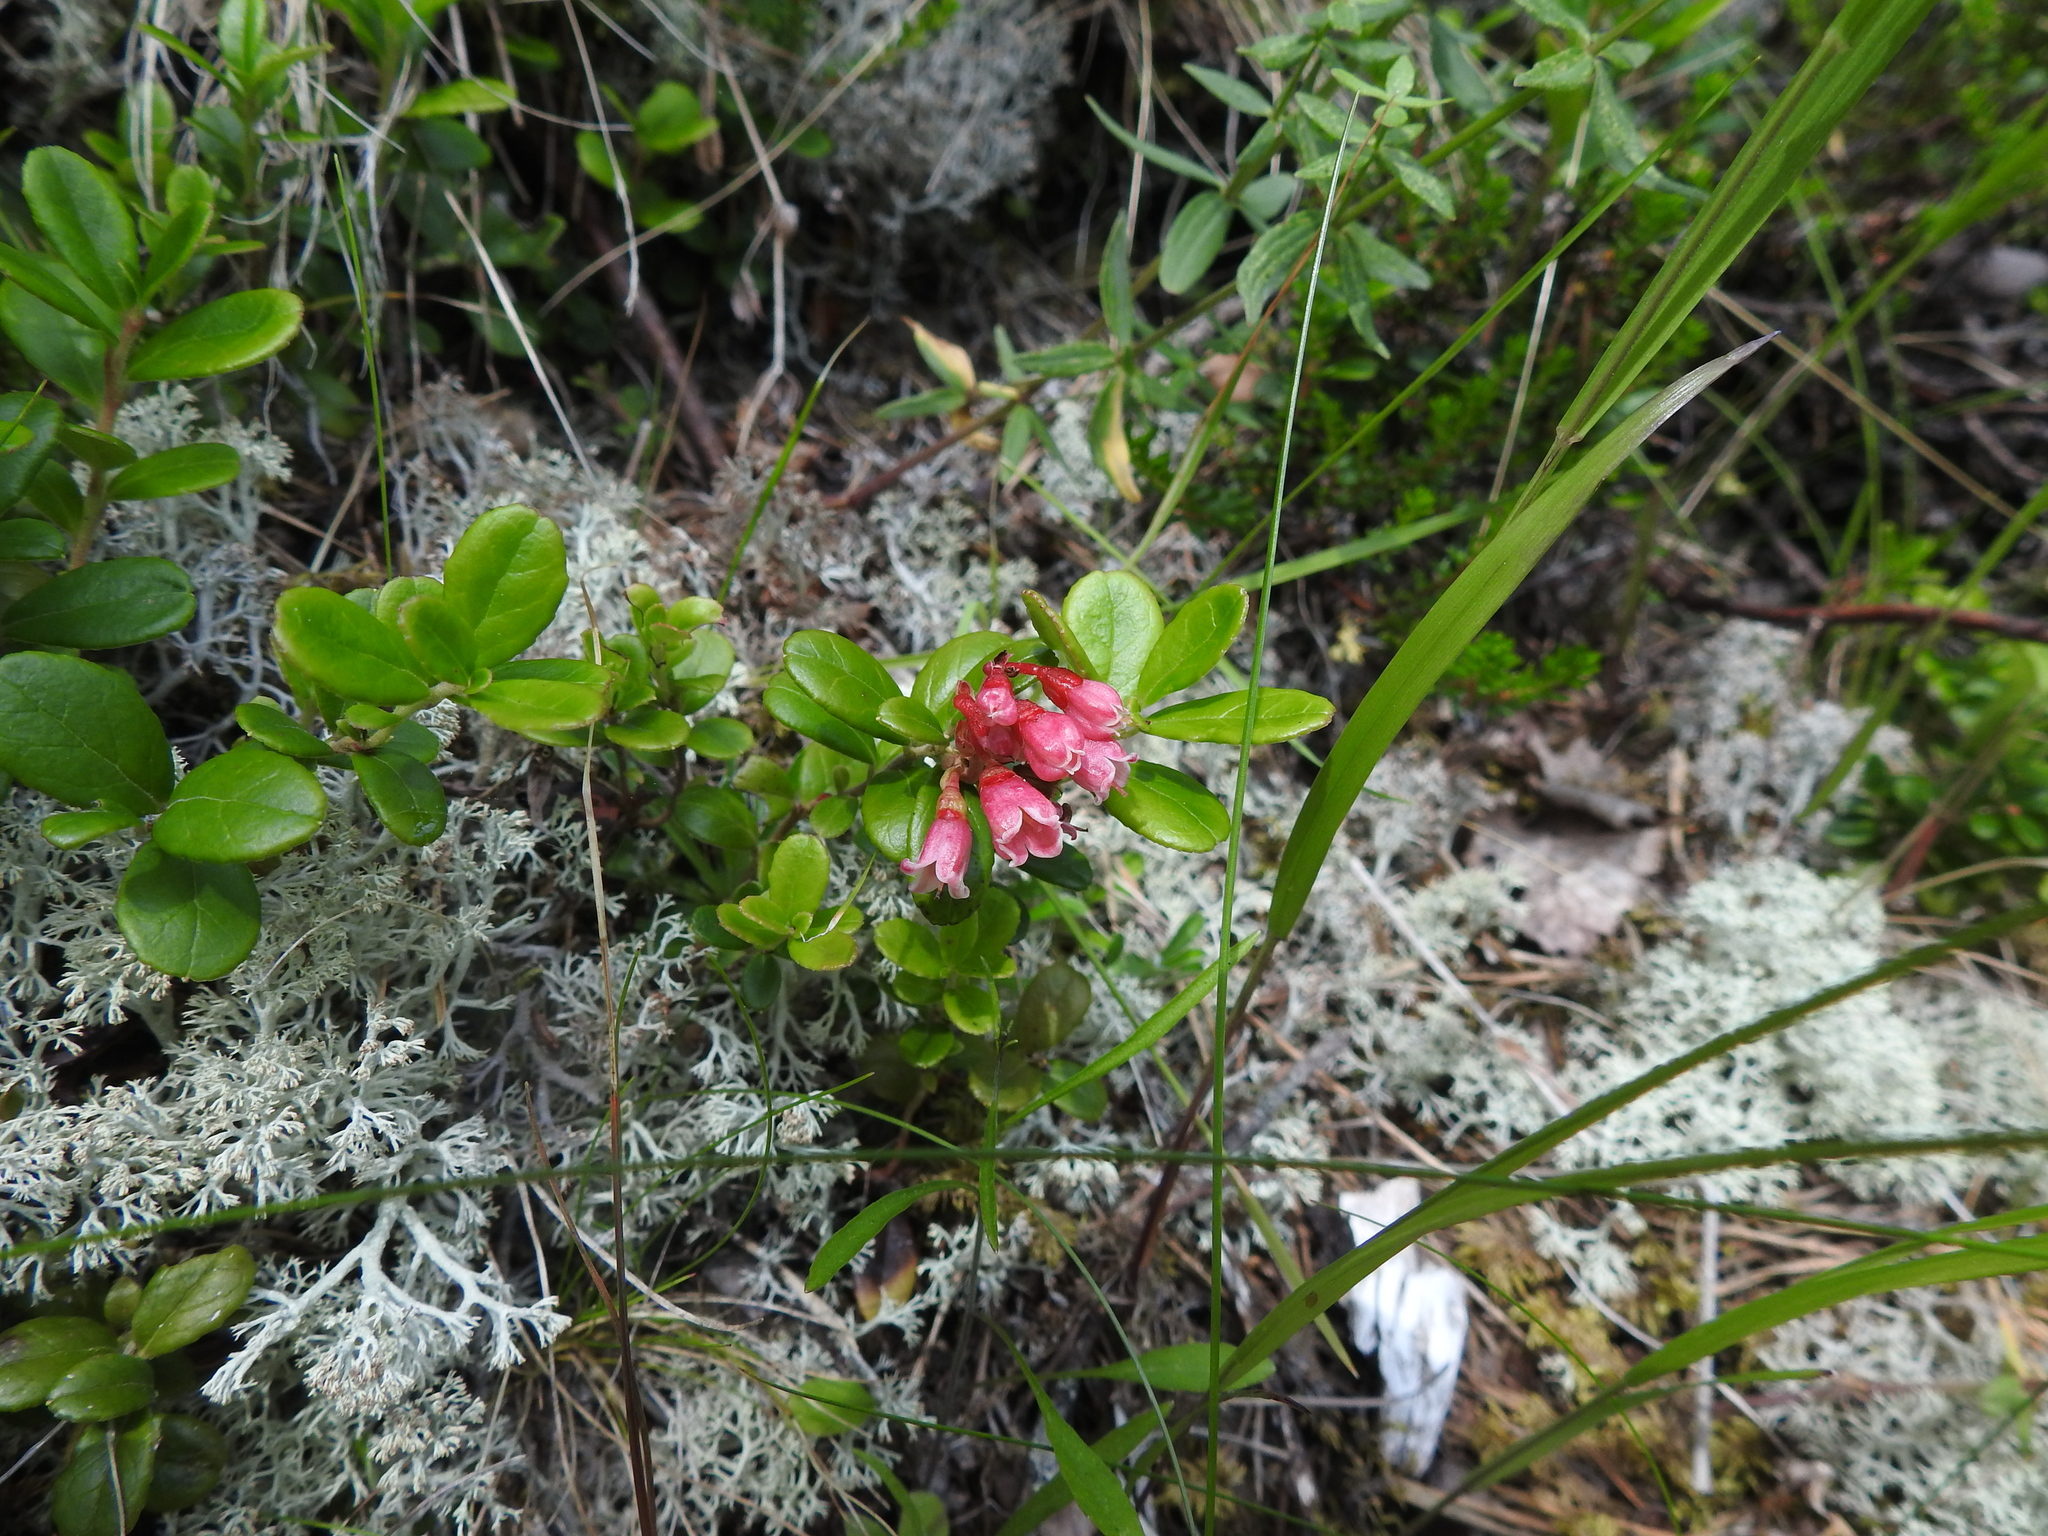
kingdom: Plantae
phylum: Tracheophyta
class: Magnoliopsida
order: Ericales
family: Ericaceae
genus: Vaccinium
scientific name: Vaccinium vitis-idaea
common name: Cowberry
